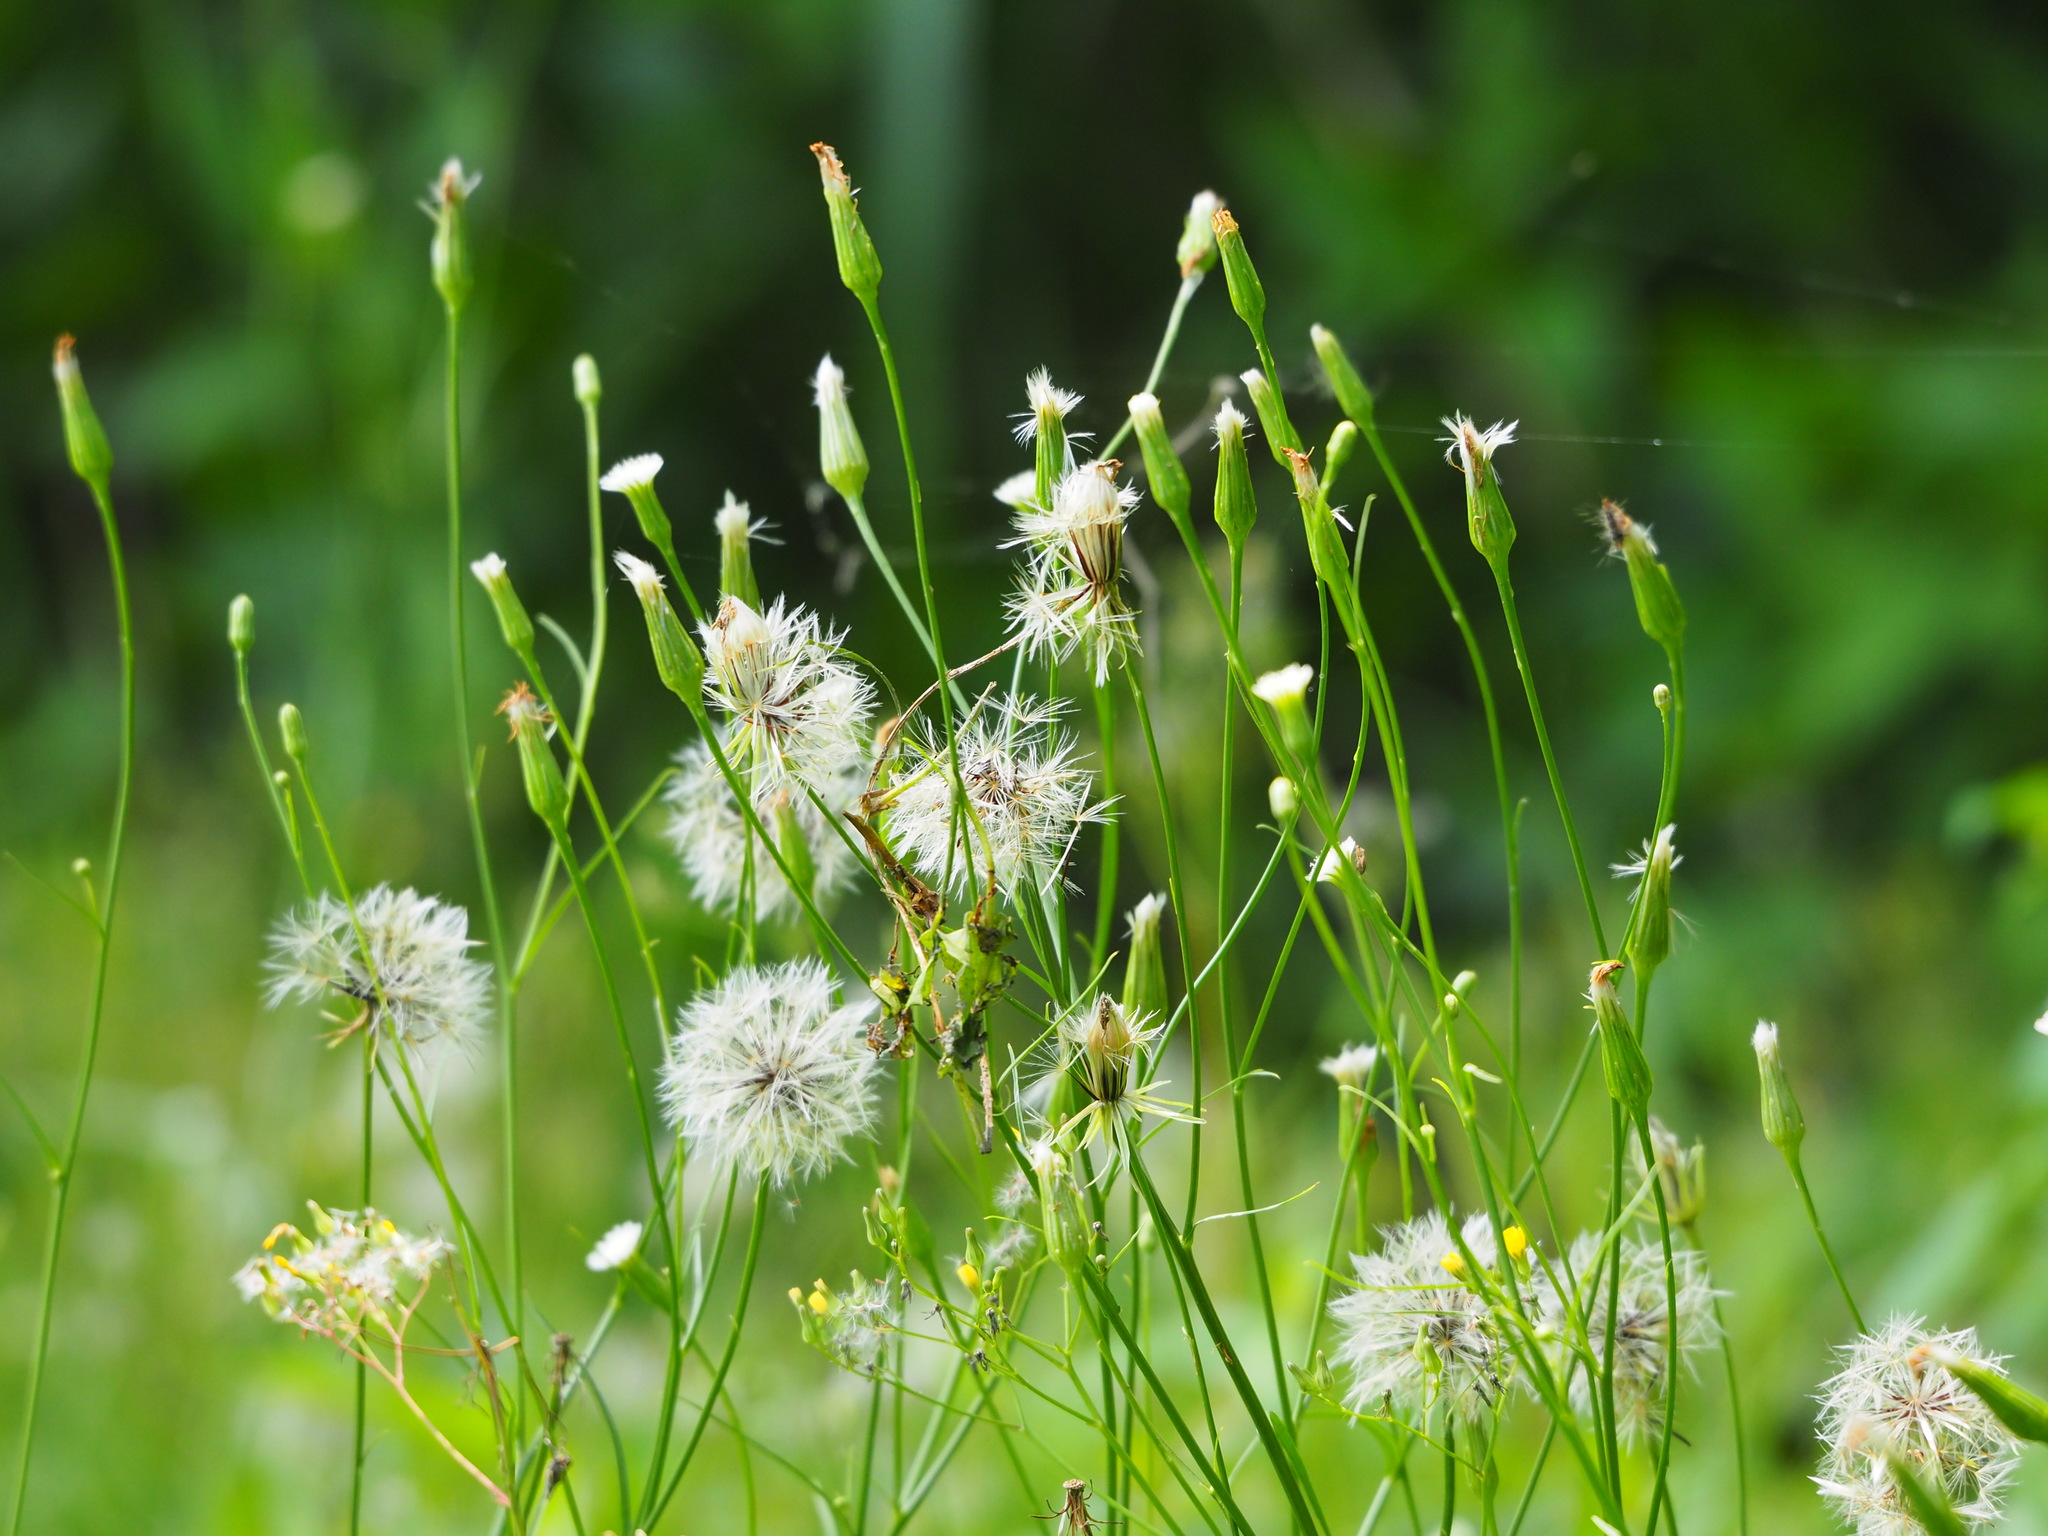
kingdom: Plantae
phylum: Tracheophyta
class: Magnoliopsida
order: Asterales
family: Asteraceae
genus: Hypochaeris
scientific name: Hypochaeris albiflora
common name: White flatweed
